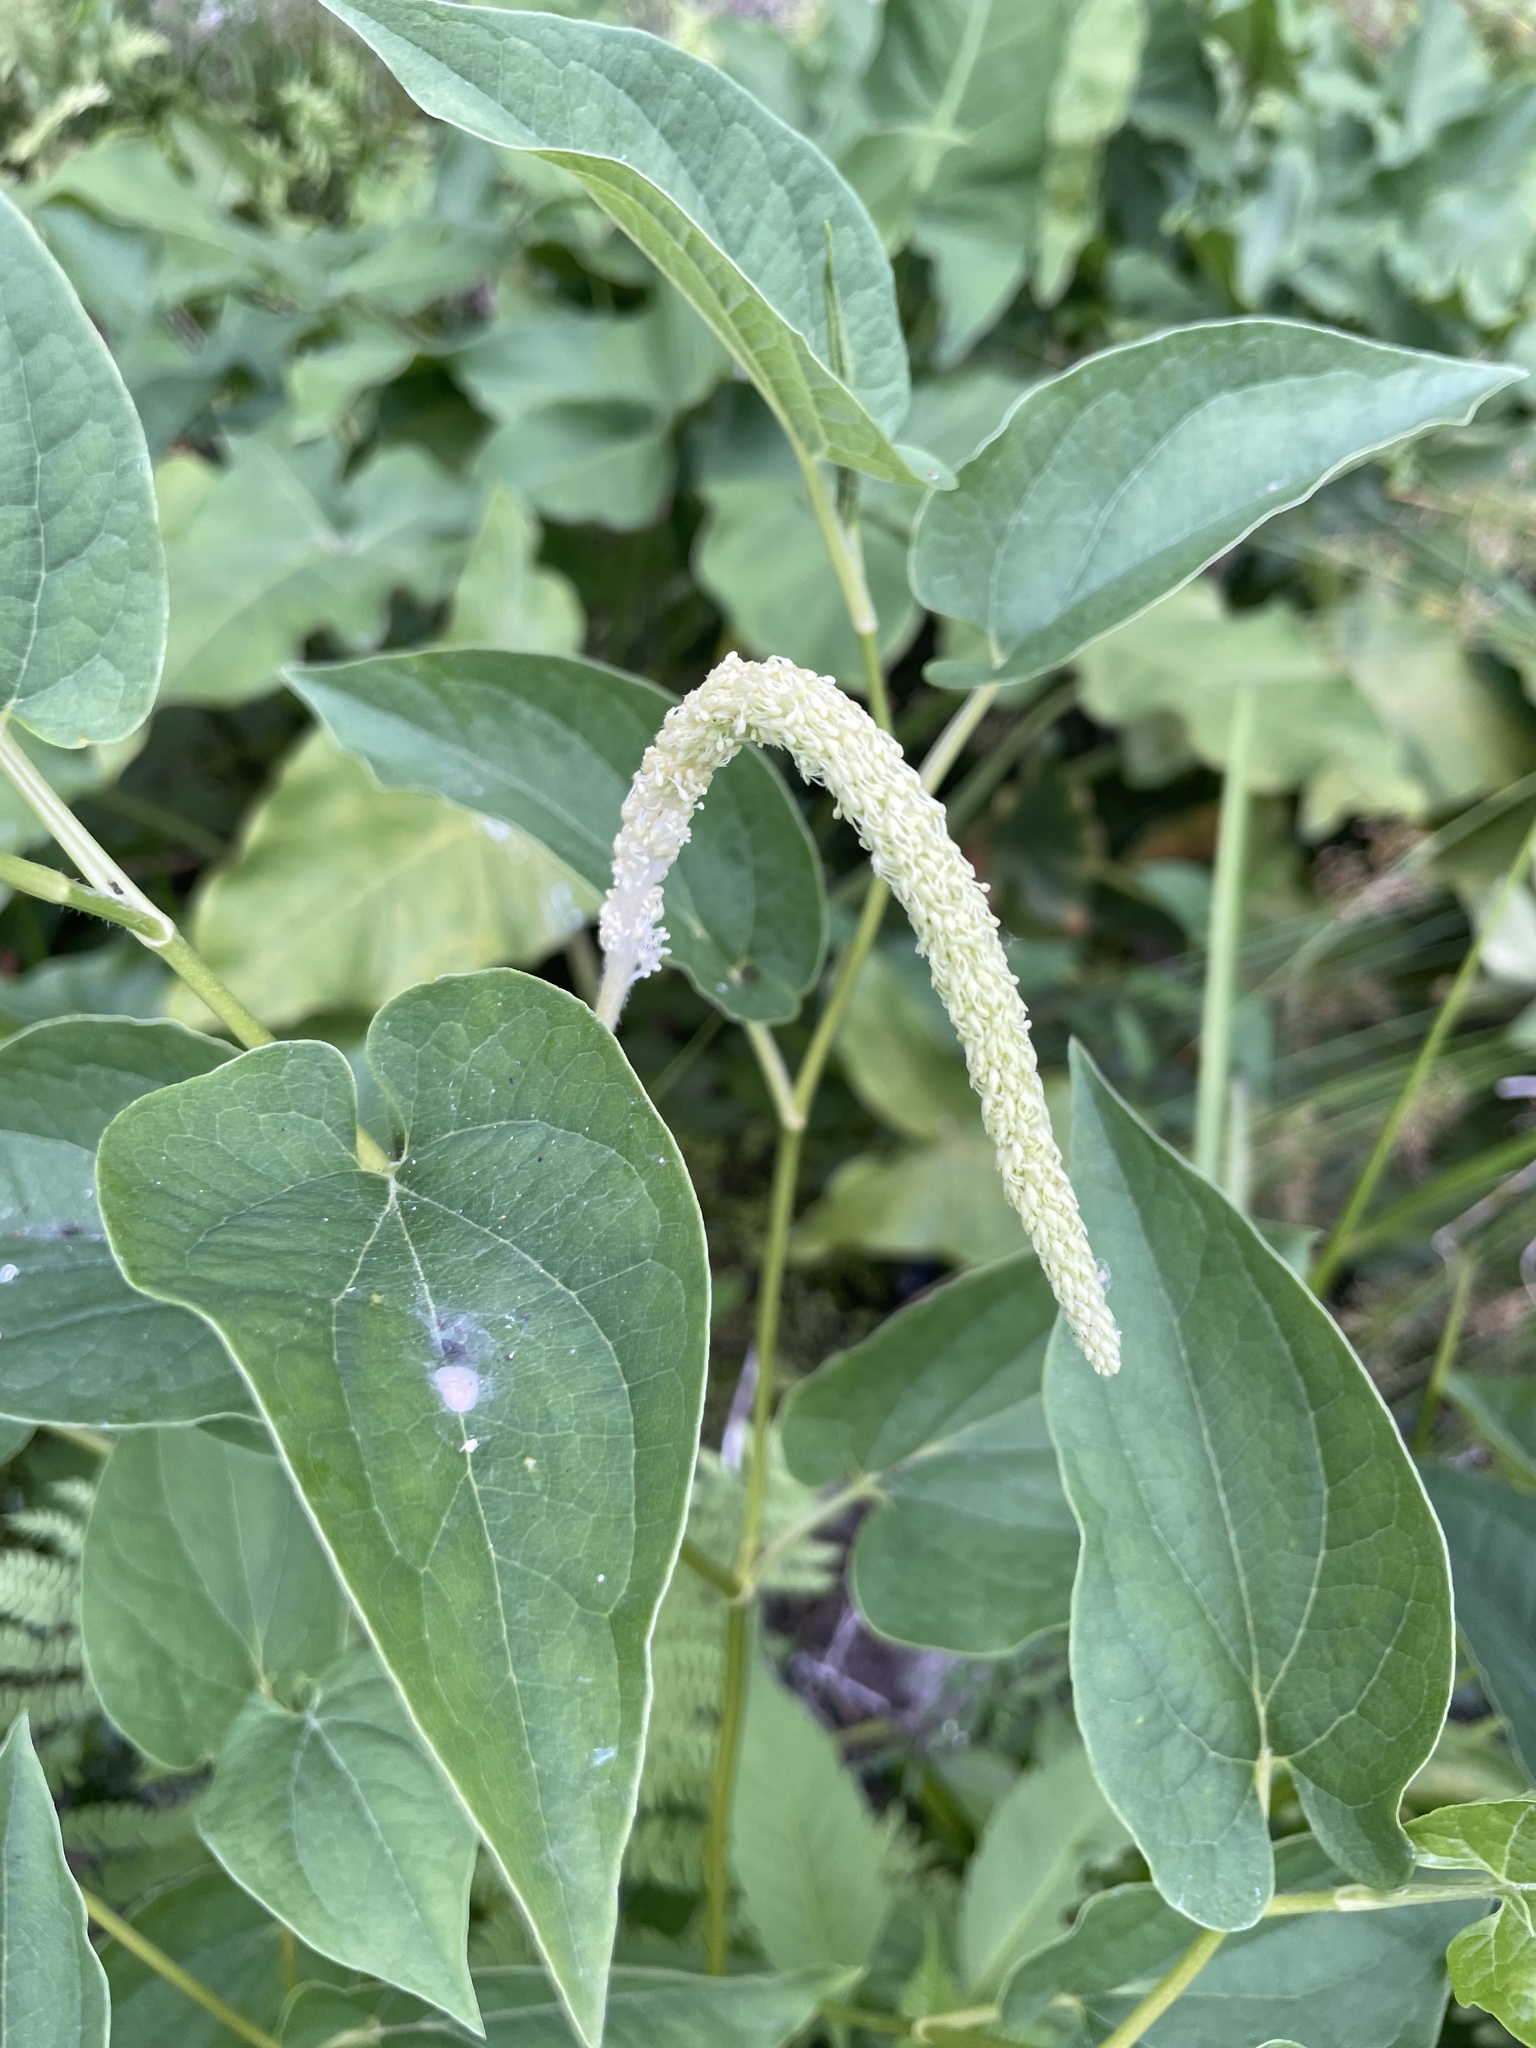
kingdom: Plantae
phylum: Tracheophyta
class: Magnoliopsida
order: Piperales
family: Saururaceae
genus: Saururus
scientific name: Saururus cernuus
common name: Lizard's-tail
